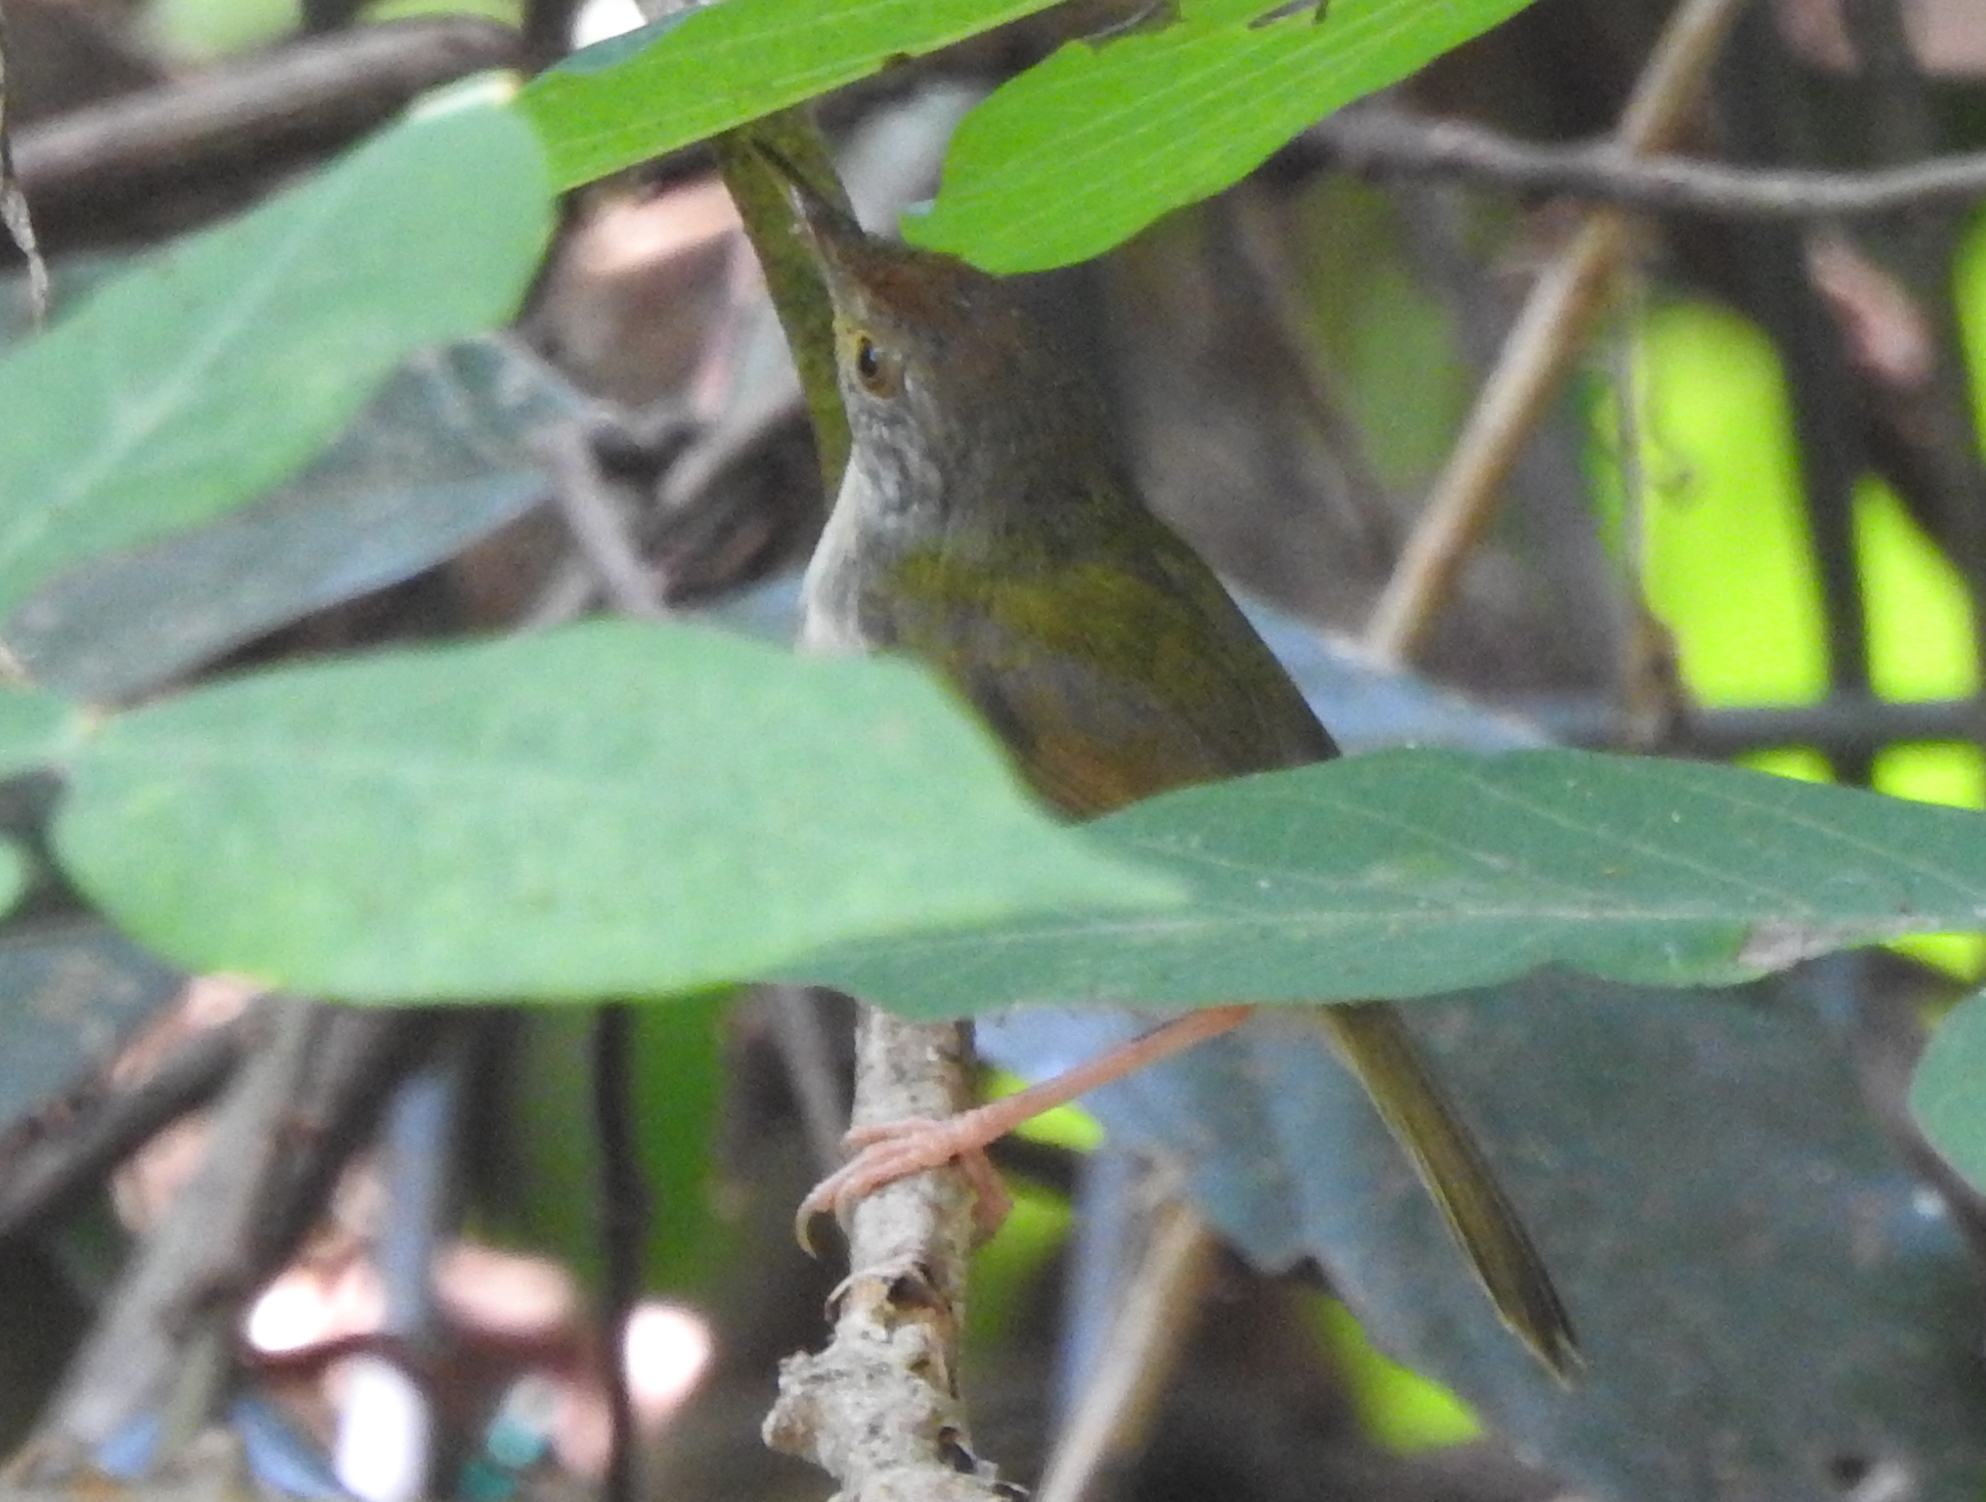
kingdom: Animalia
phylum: Chordata
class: Aves
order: Passeriformes
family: Cisticolidae
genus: Orthotomus
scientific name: Orthotomus sutorius
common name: Common tailorbird
